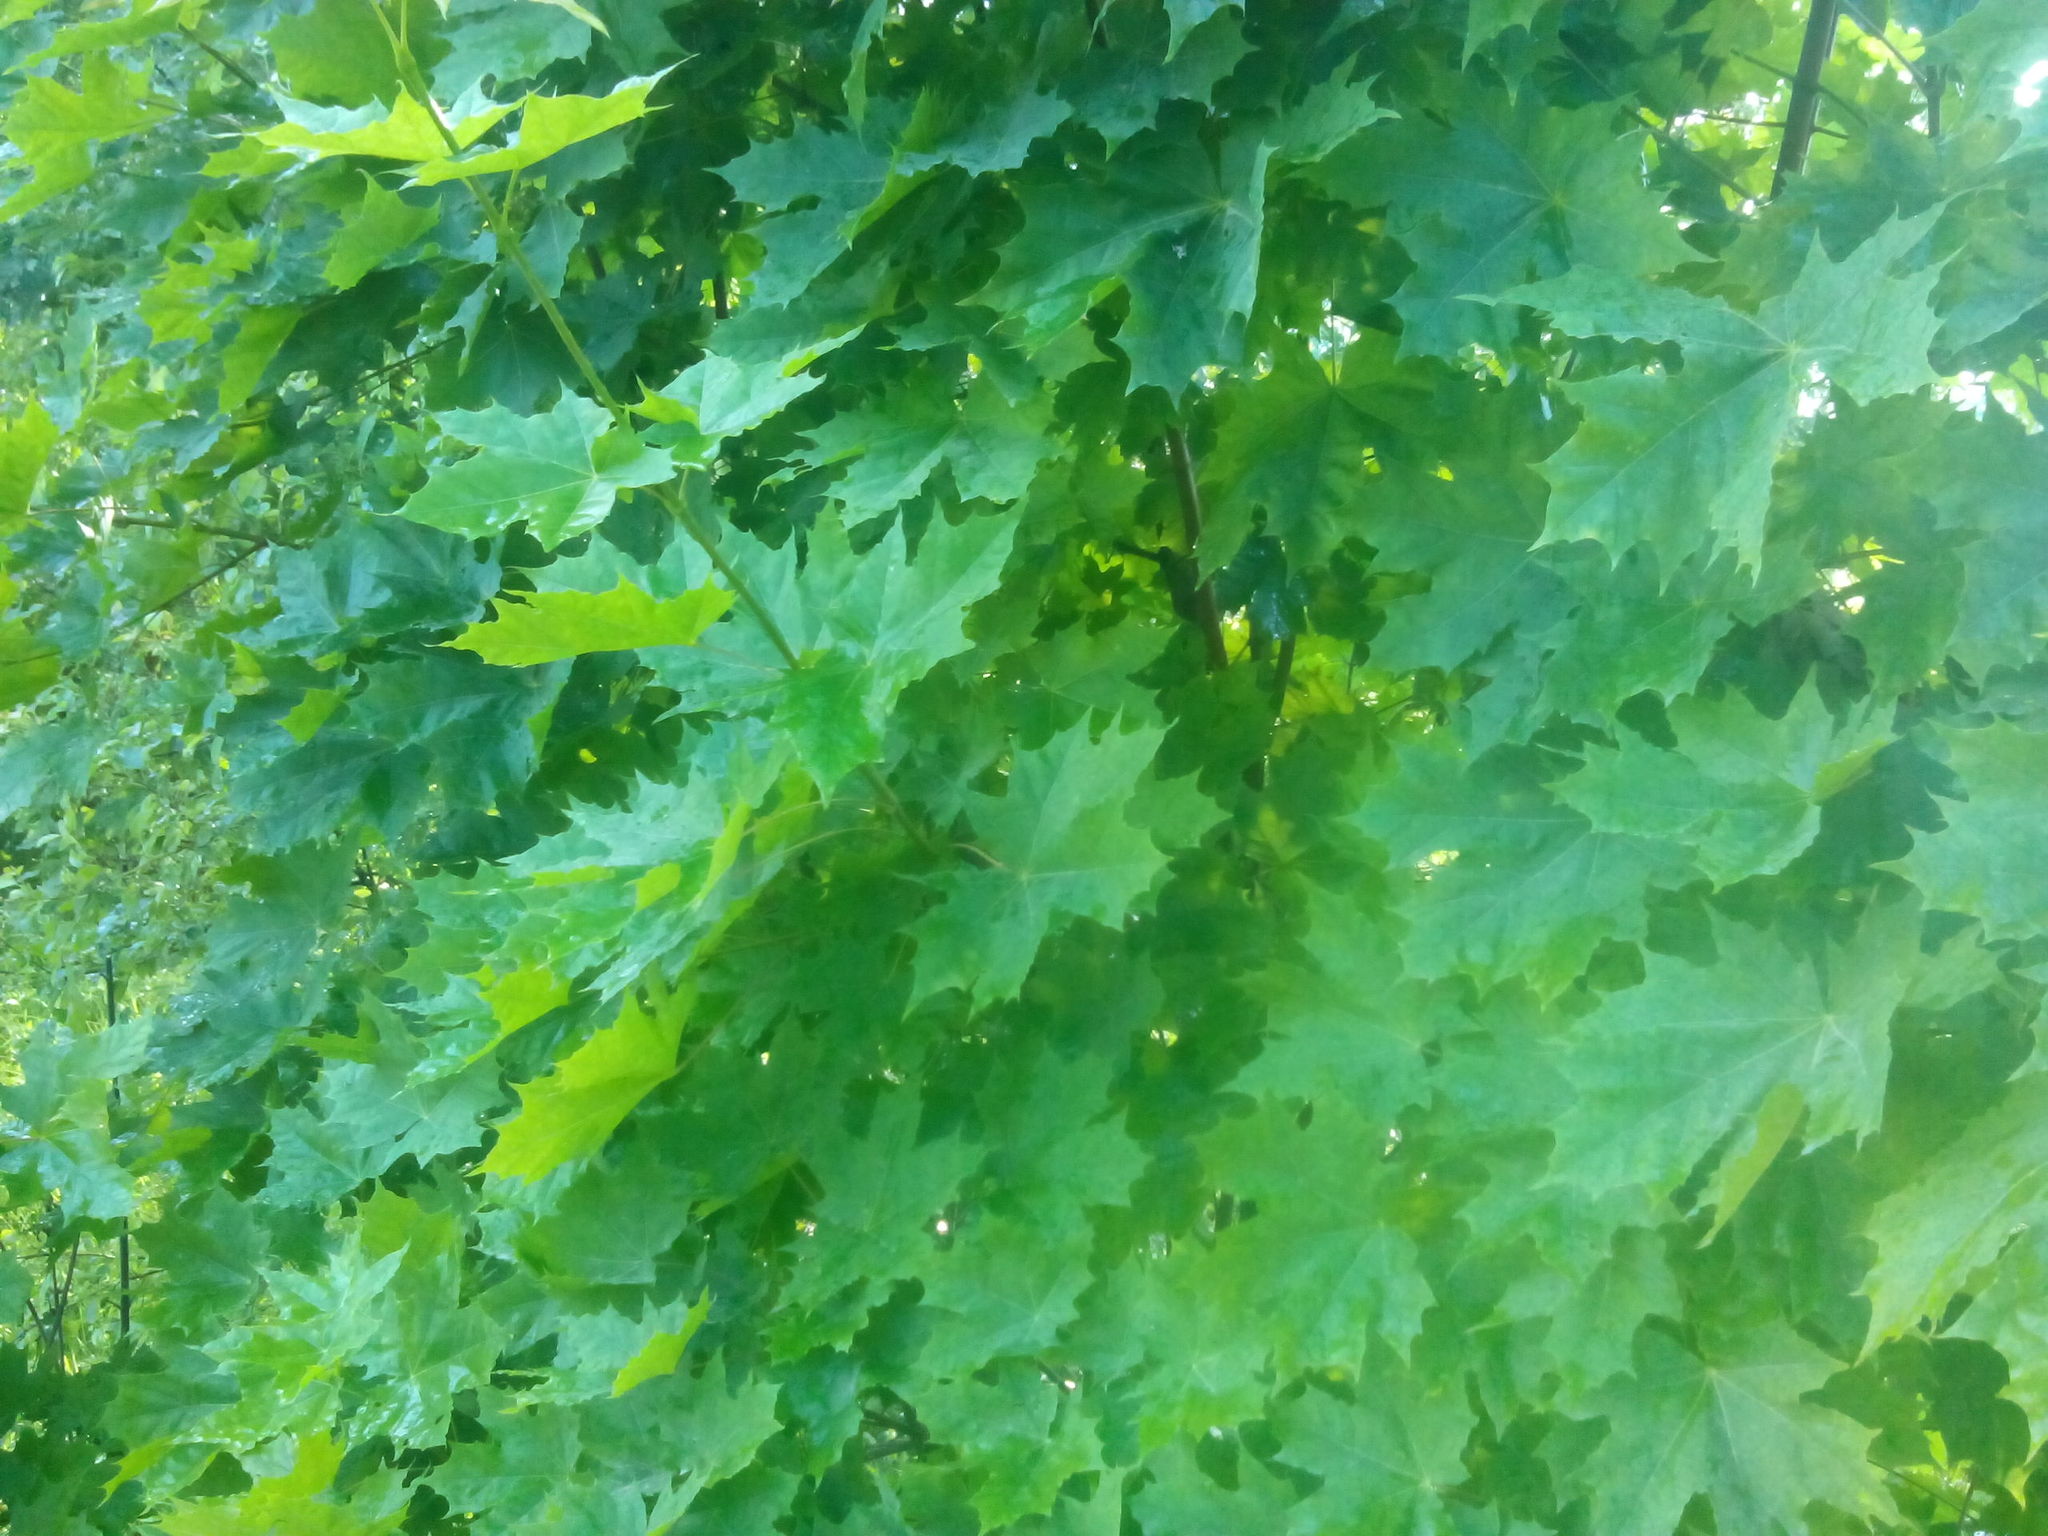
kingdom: Plantae
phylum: Tracheophyta
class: Magnoliopsida
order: Sapindales
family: Sapindaceae
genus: Acer
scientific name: Acer platanoides
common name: Norway maple
